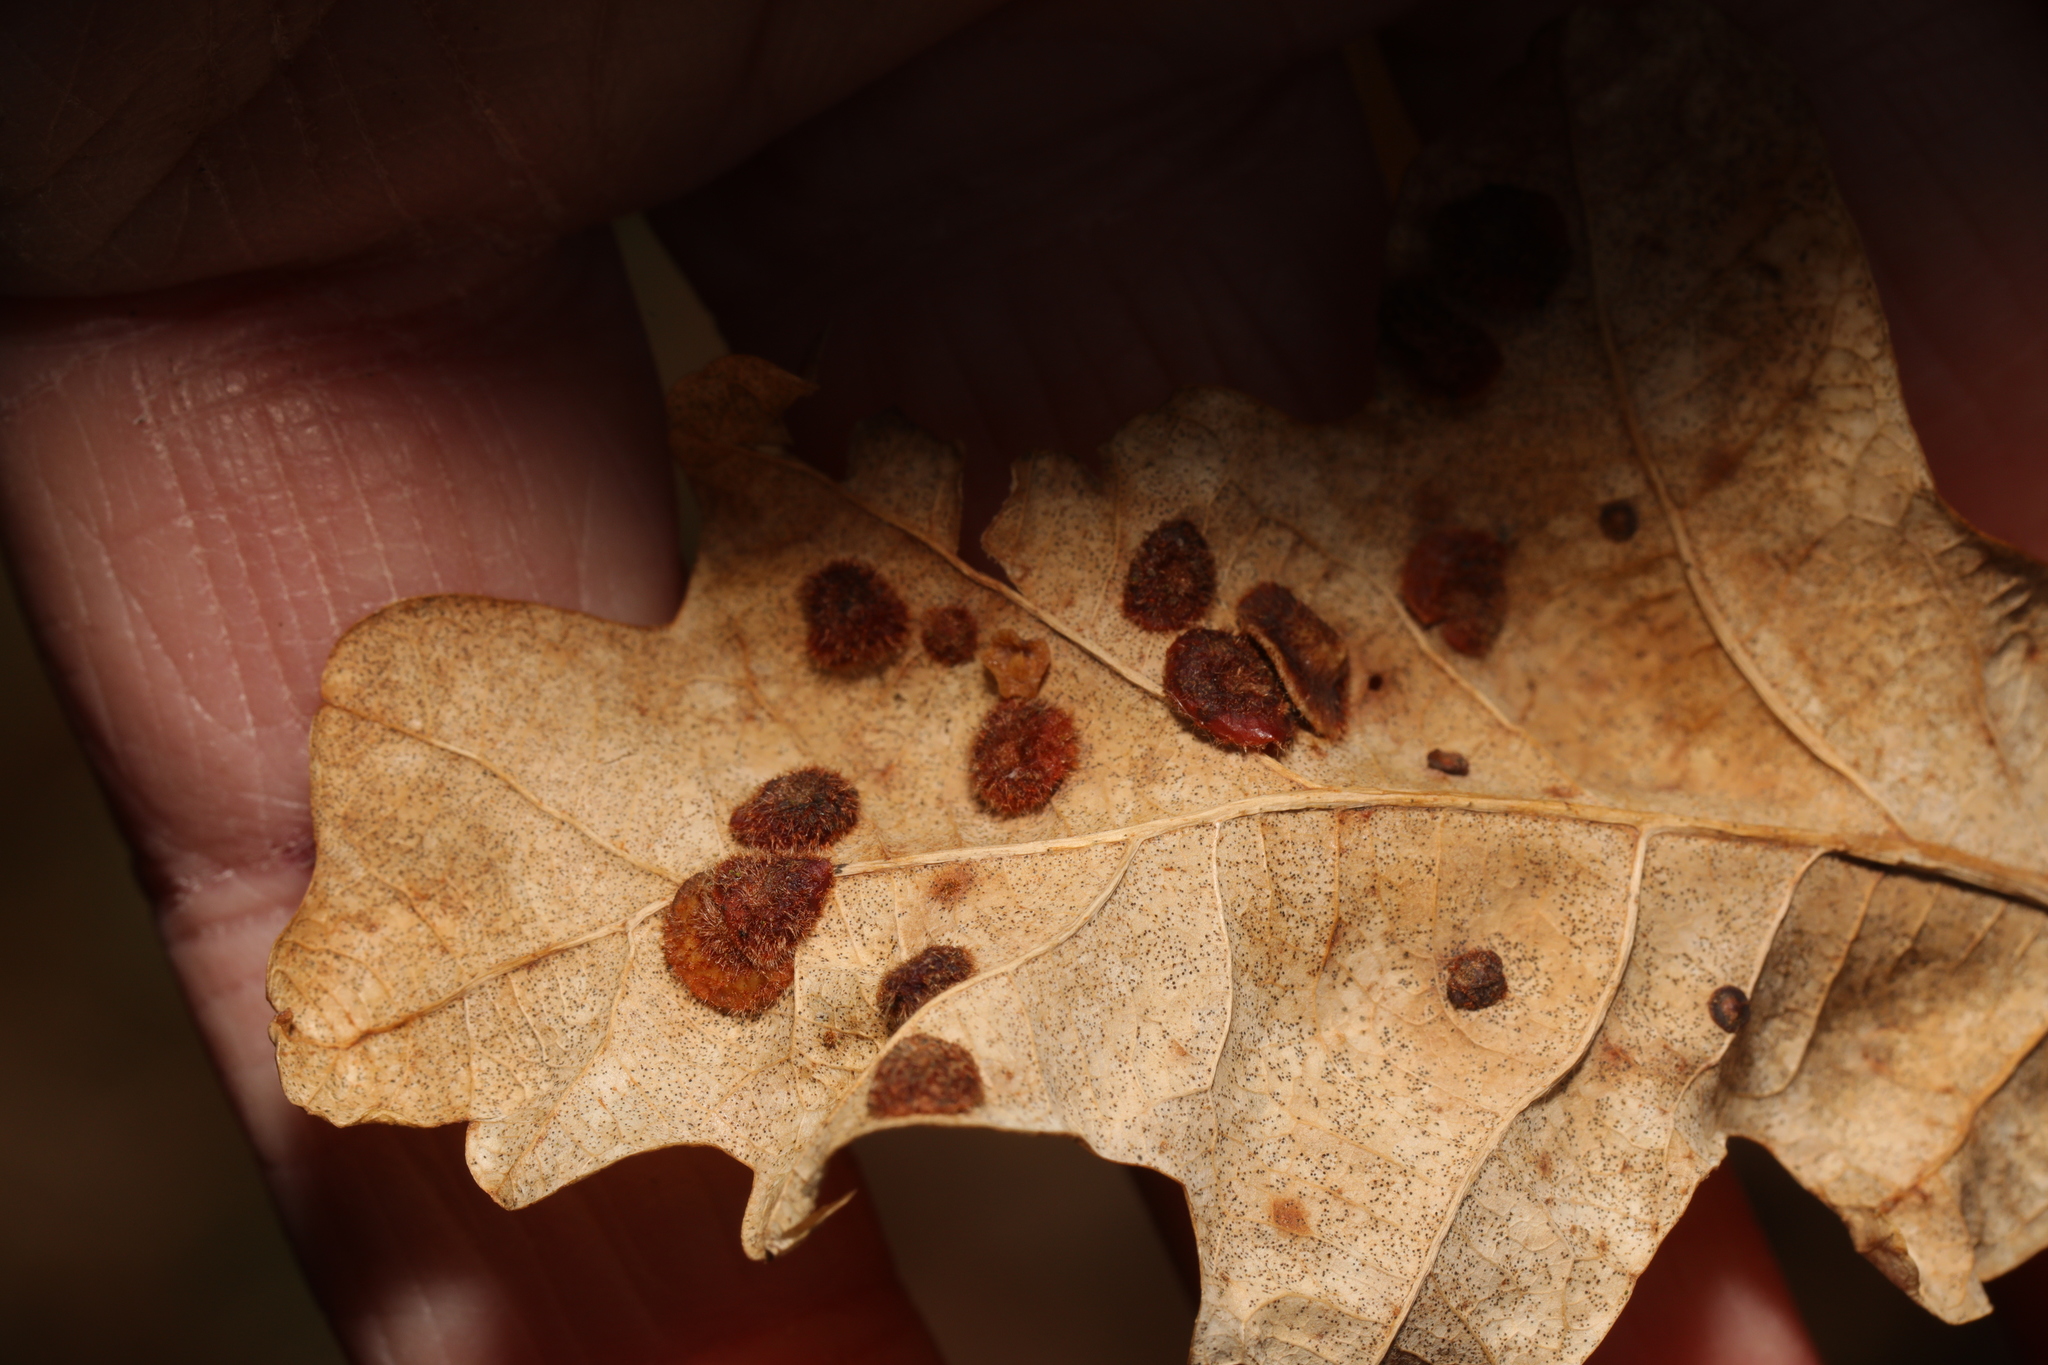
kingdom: Animalia
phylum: Arthropoda
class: Insecta
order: Hymenoptera
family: Cynipidae
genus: Neuroterus
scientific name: Neuroterus quercusbaccarum
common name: Common spangle gall
